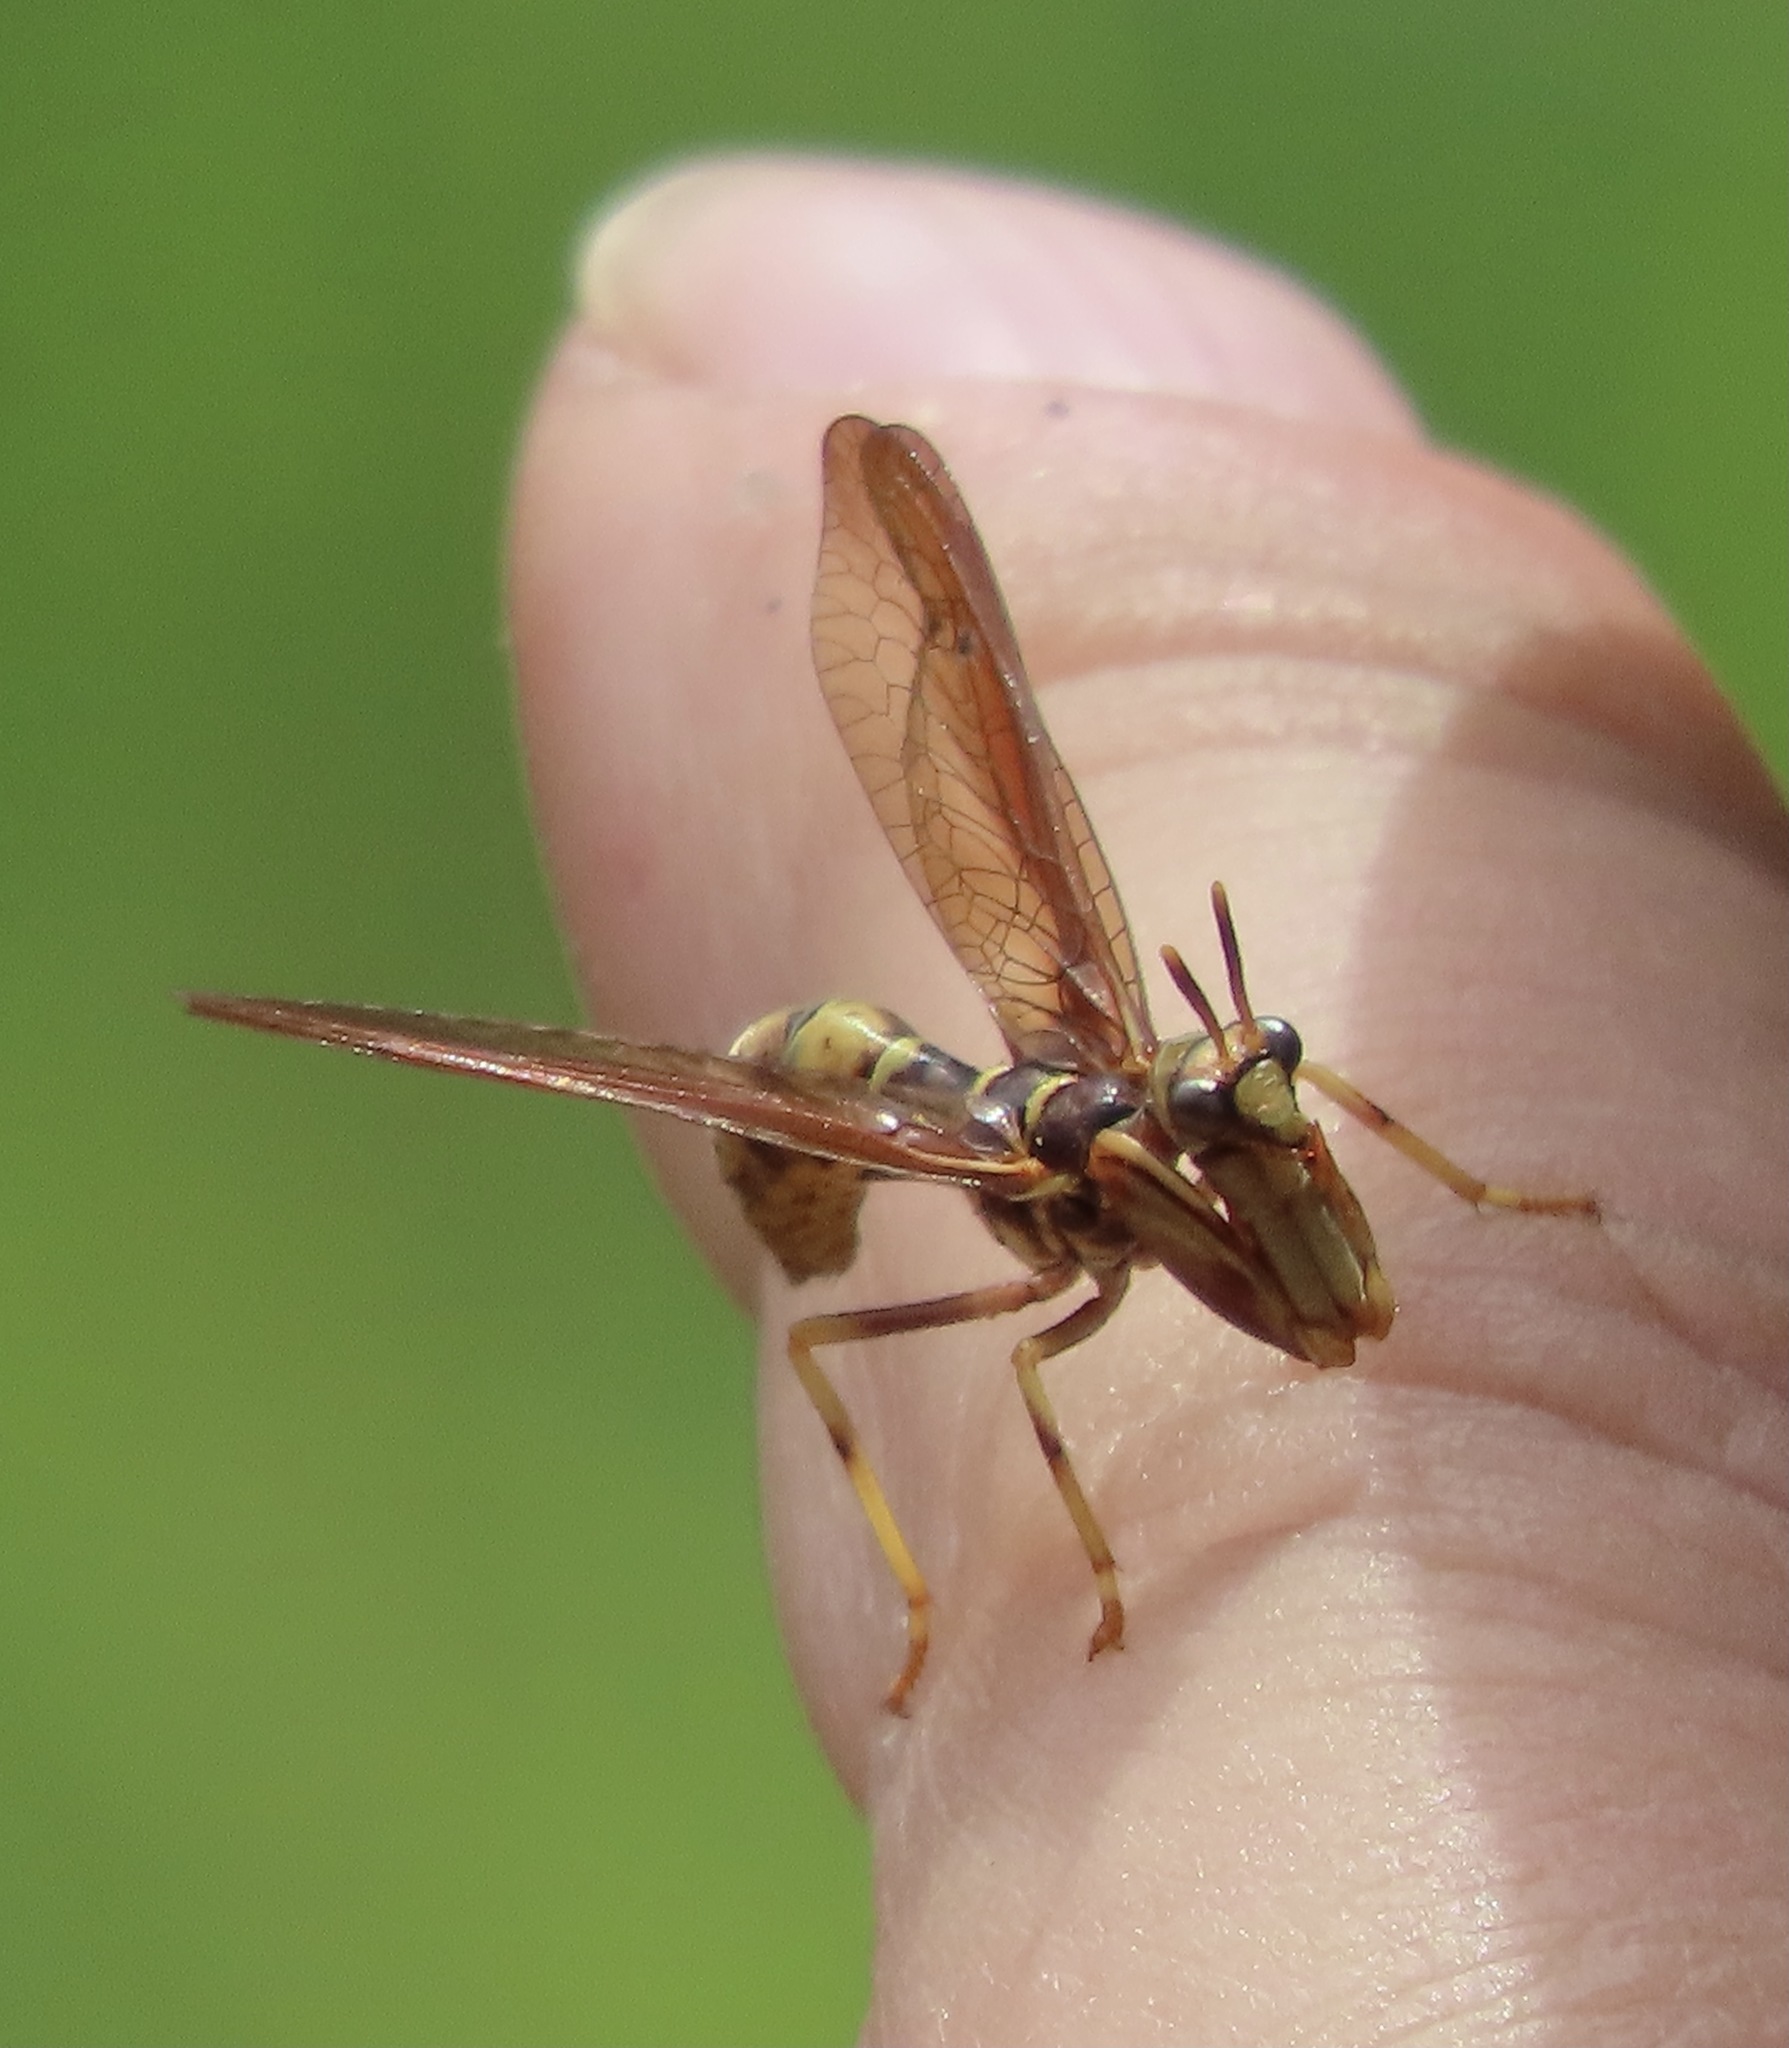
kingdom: Animalia
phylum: Arthropoda
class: Insecta
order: Neuroptera
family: Mantispidae
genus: Climaciella
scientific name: Climaciella brunnea
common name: Brown wasp mantidfly
